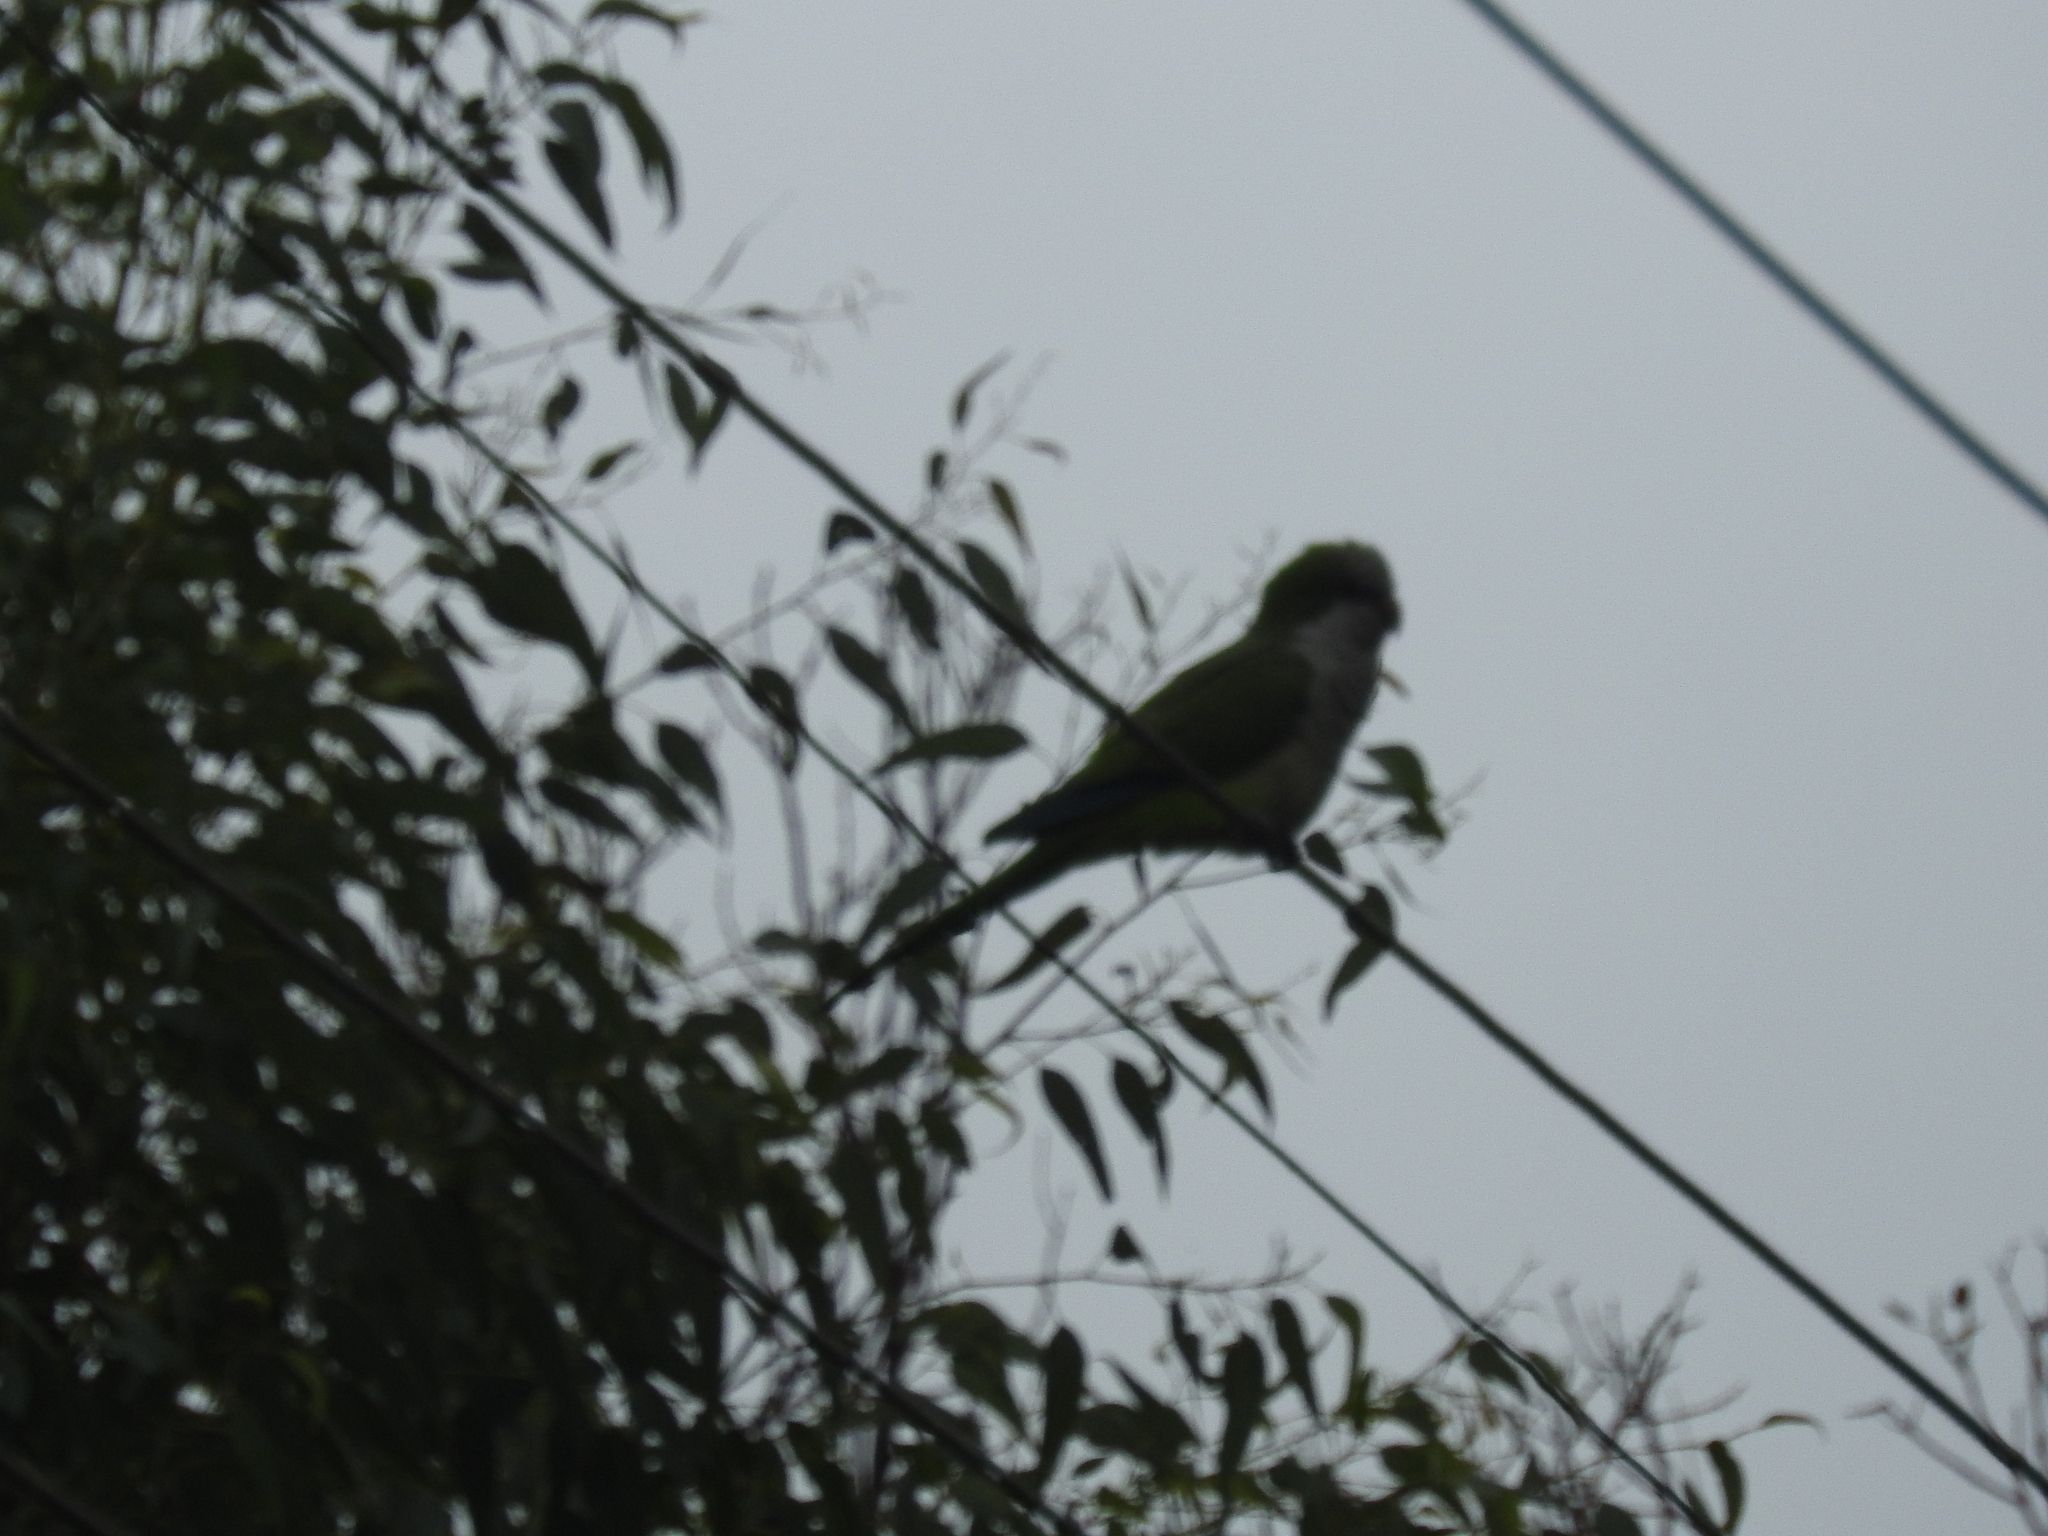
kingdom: Animalia
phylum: Chordata
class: Aves
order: Psittaciformes
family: Psittacidae
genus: Myiopsitta
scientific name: Myiopsitta monachus
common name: Monk parakeet
